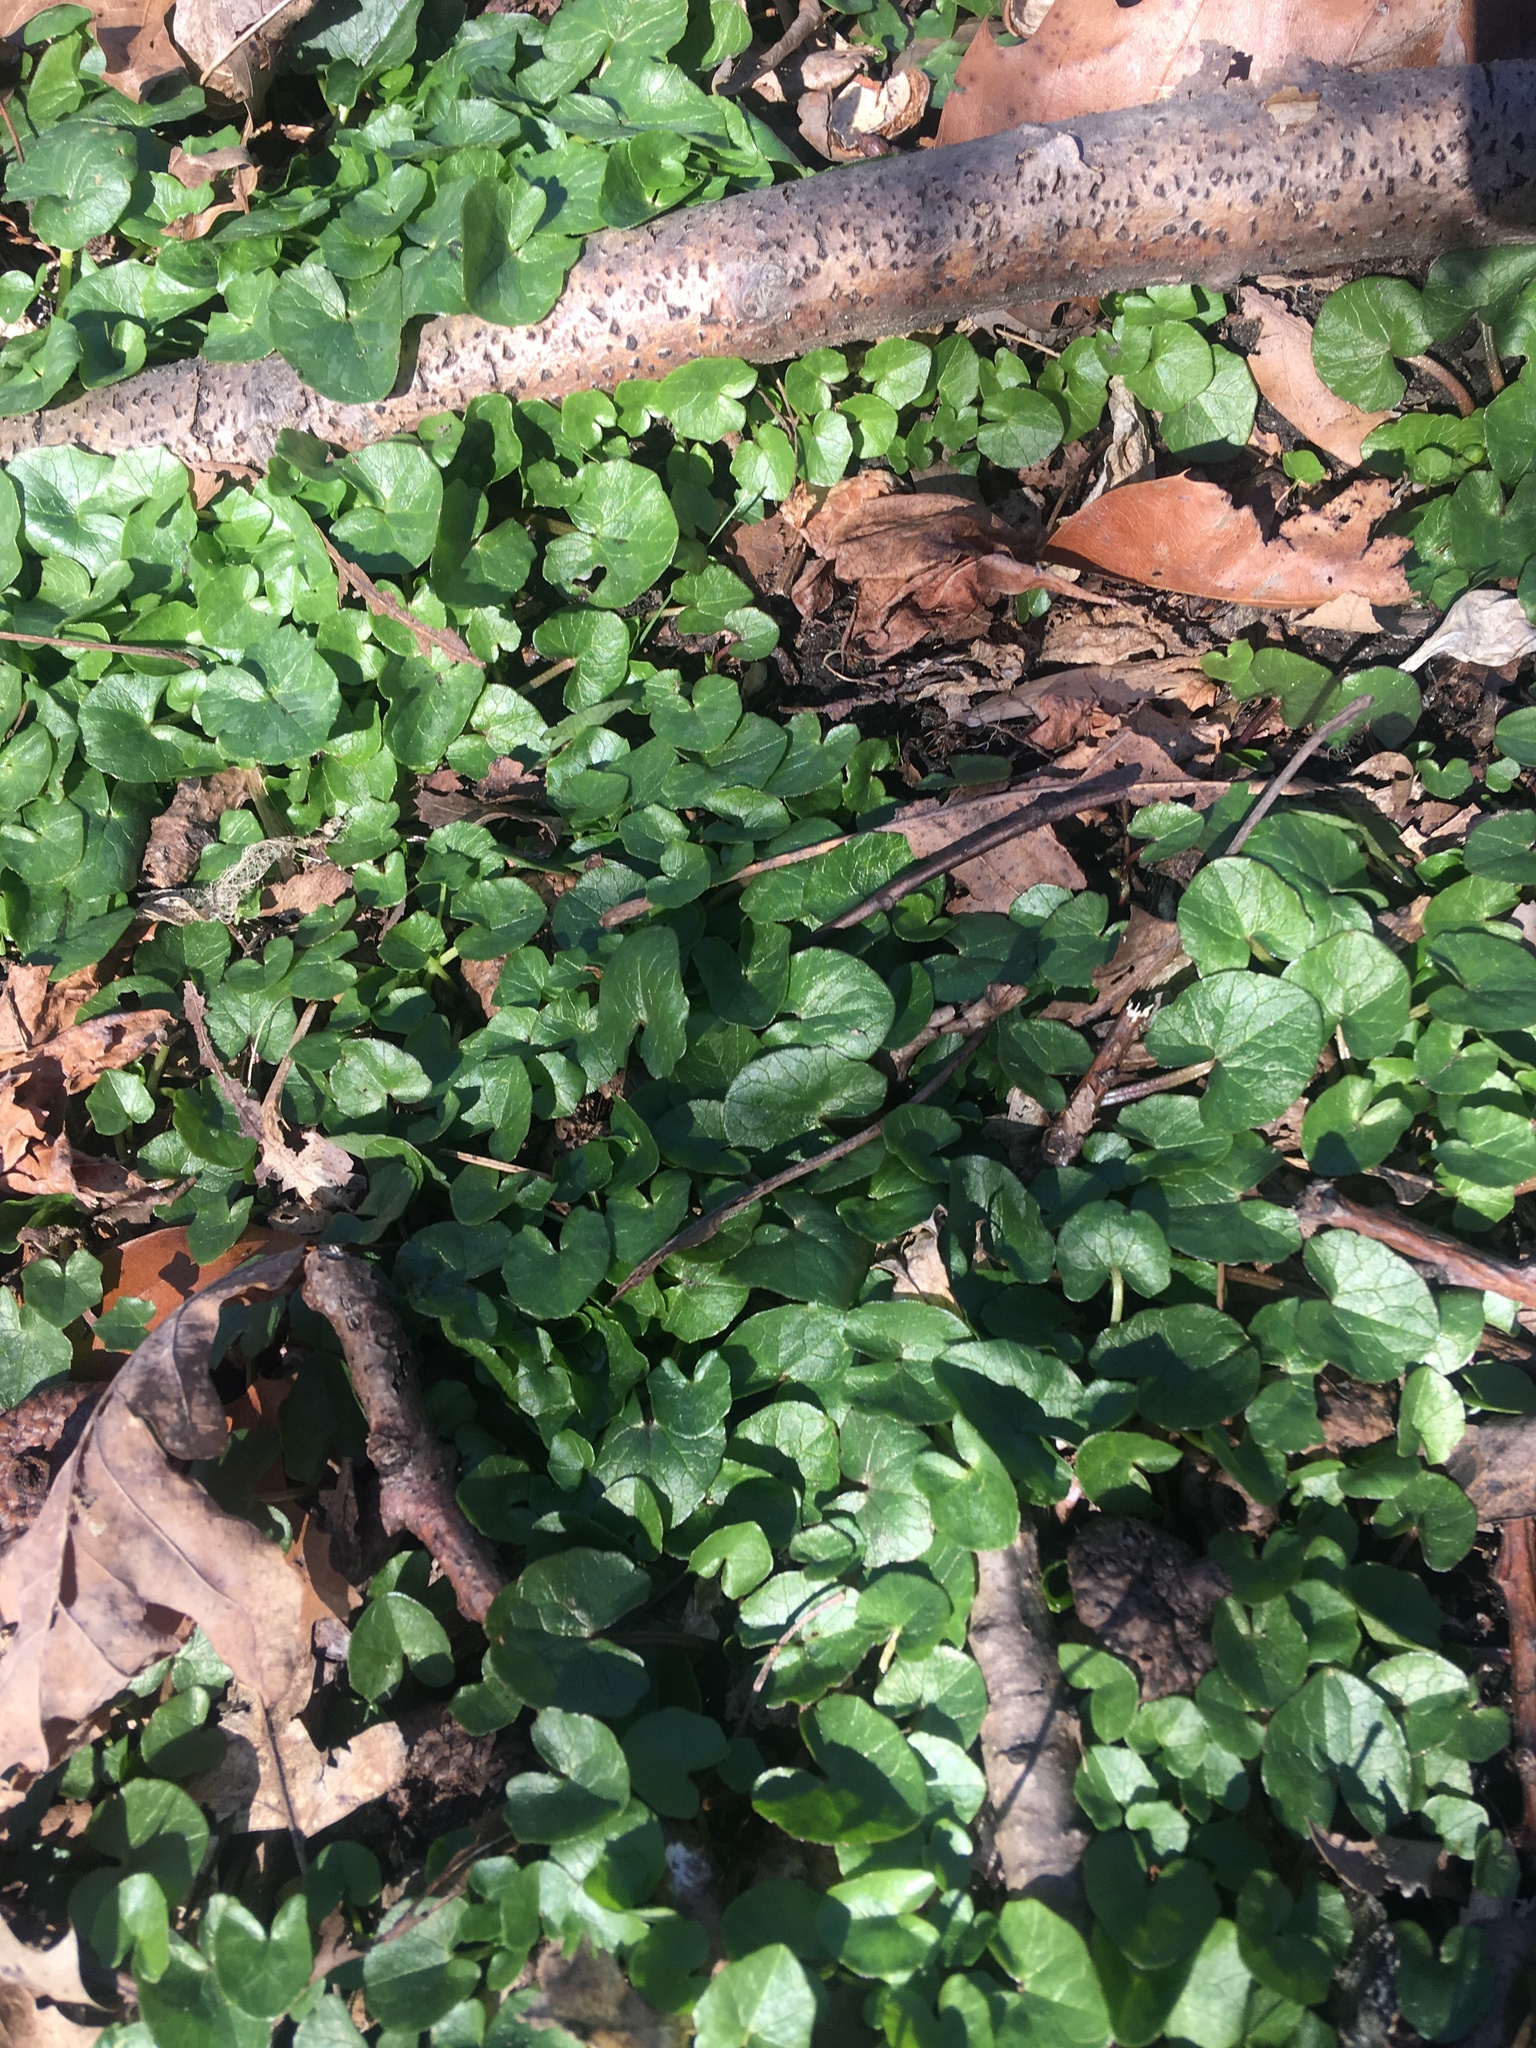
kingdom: Plantae
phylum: Tracheophyta
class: Magnoliopsida
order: Ranunculales
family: Ranunculaceae
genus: Ficaria
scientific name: Ficaria verna
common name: Lesser celandine
